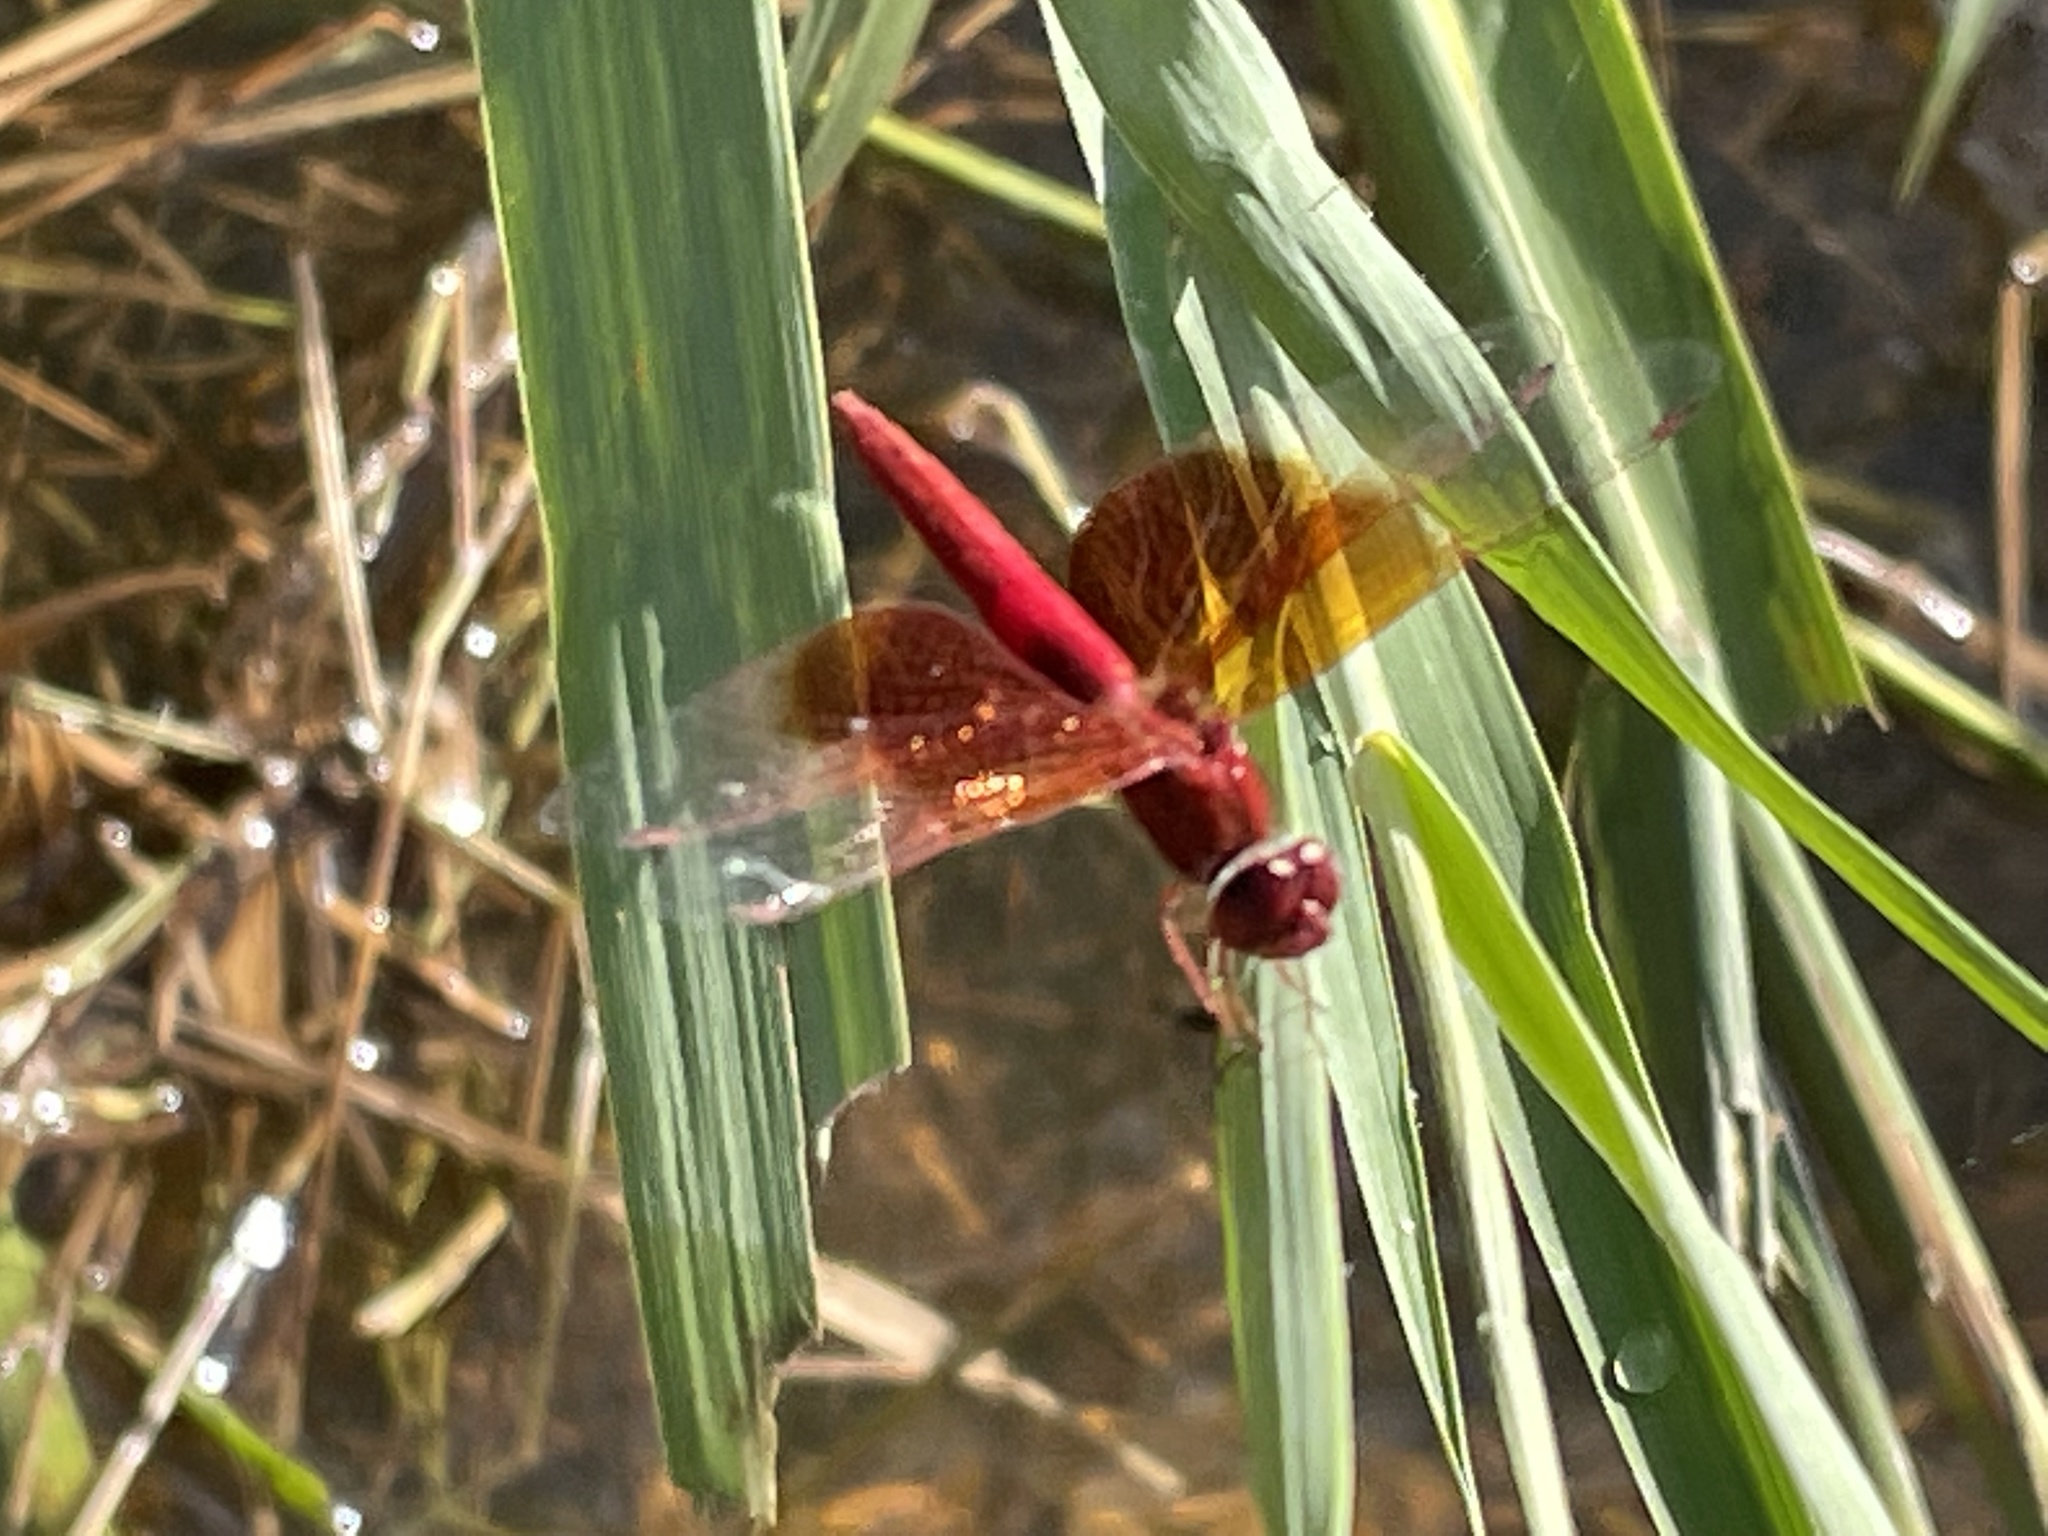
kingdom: Animalia
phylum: Arthropoda
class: Insecta
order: Odonata
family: Libellulidae
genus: Brachythemis
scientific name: Brachythemis lacustris
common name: Red groundling
